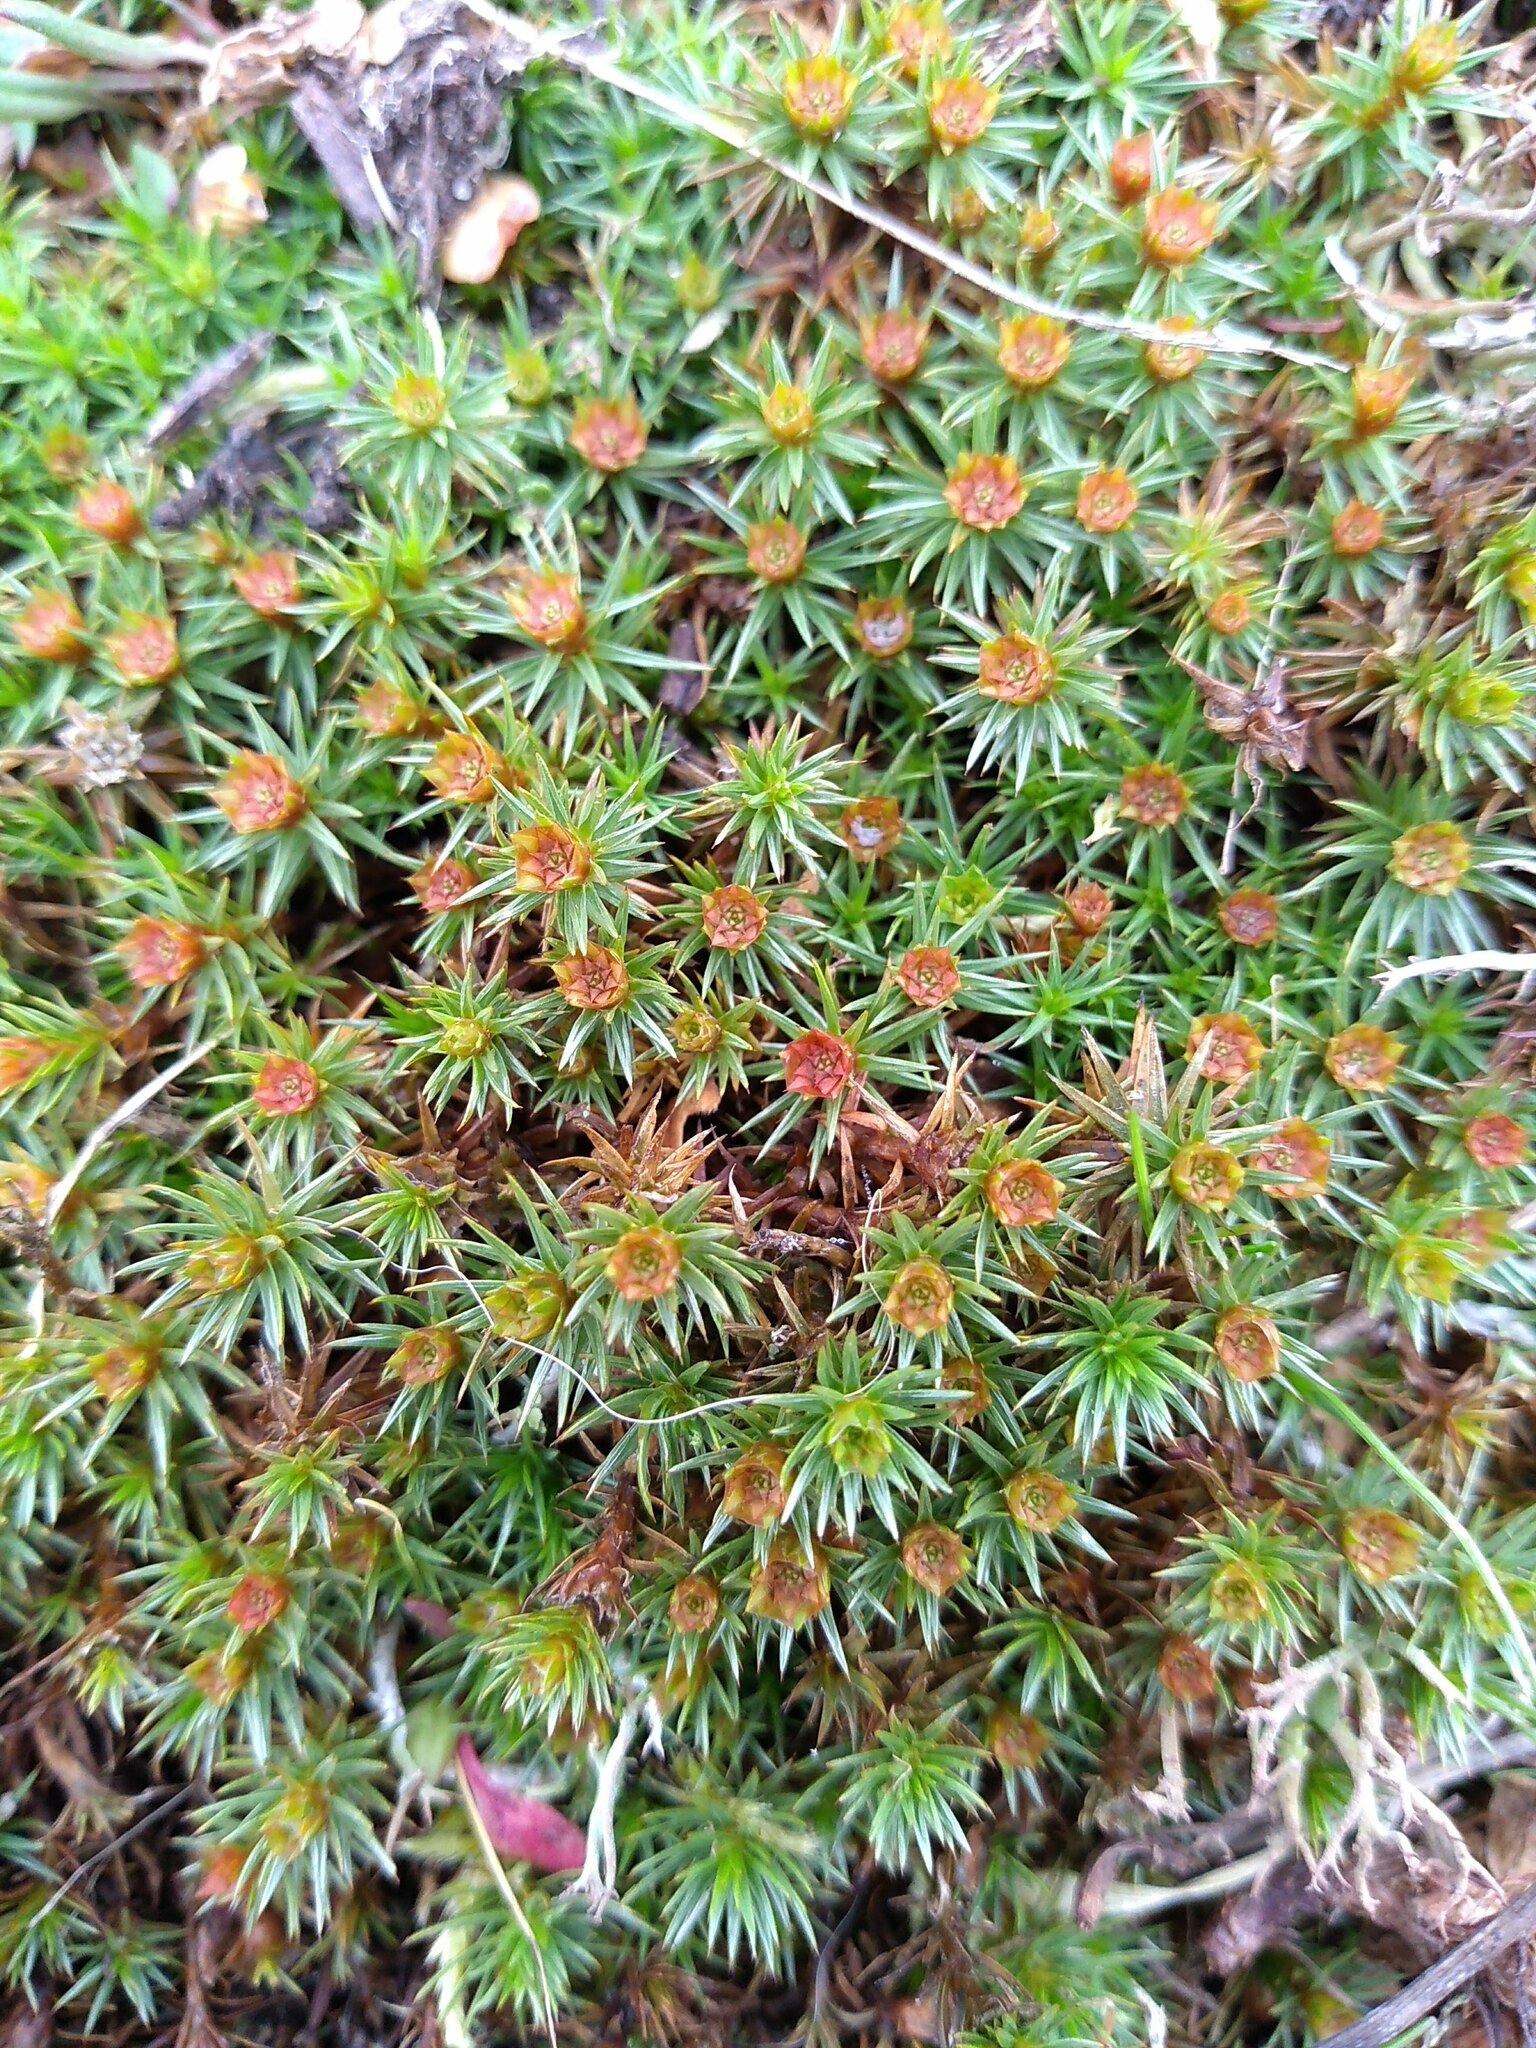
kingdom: Plantae
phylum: Bryophyta
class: Polytrichopsida
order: Polytrichales
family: Polytrichaceae
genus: Polytrichum
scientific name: Polytrichum juniperinum
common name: Juniper haircap moss
